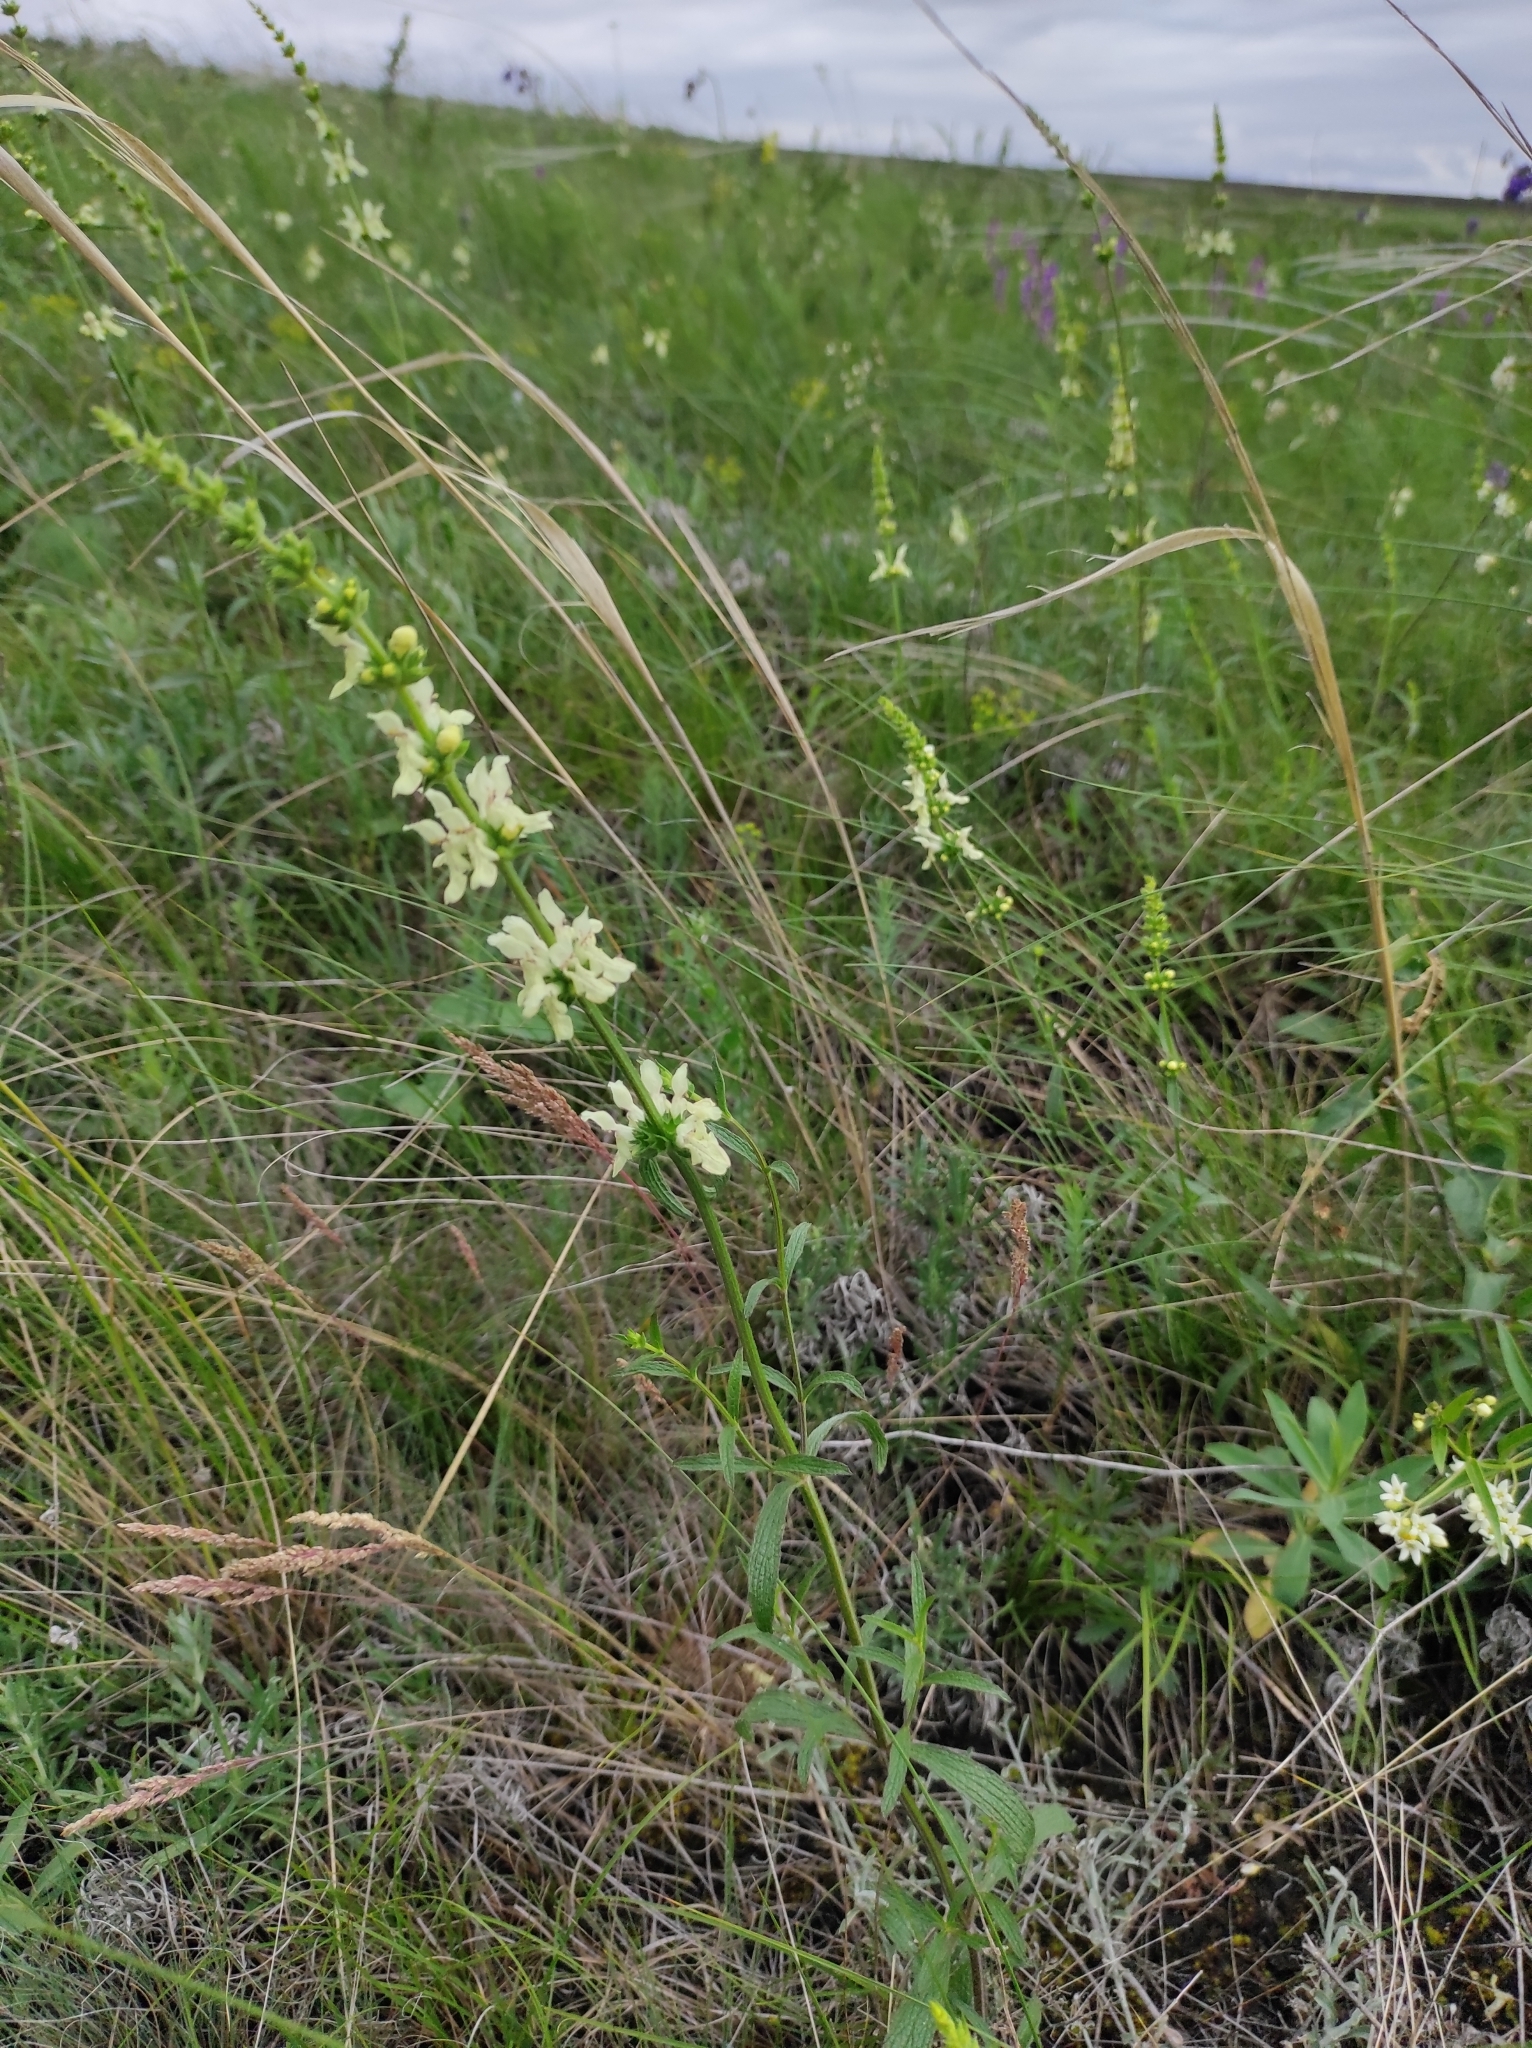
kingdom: Plantae
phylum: Tracheophyta
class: Magnoliopsida
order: Lamiales
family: Lamiaceae
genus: Stachys
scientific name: Stachys recta
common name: Perennial yellow-woundwort
